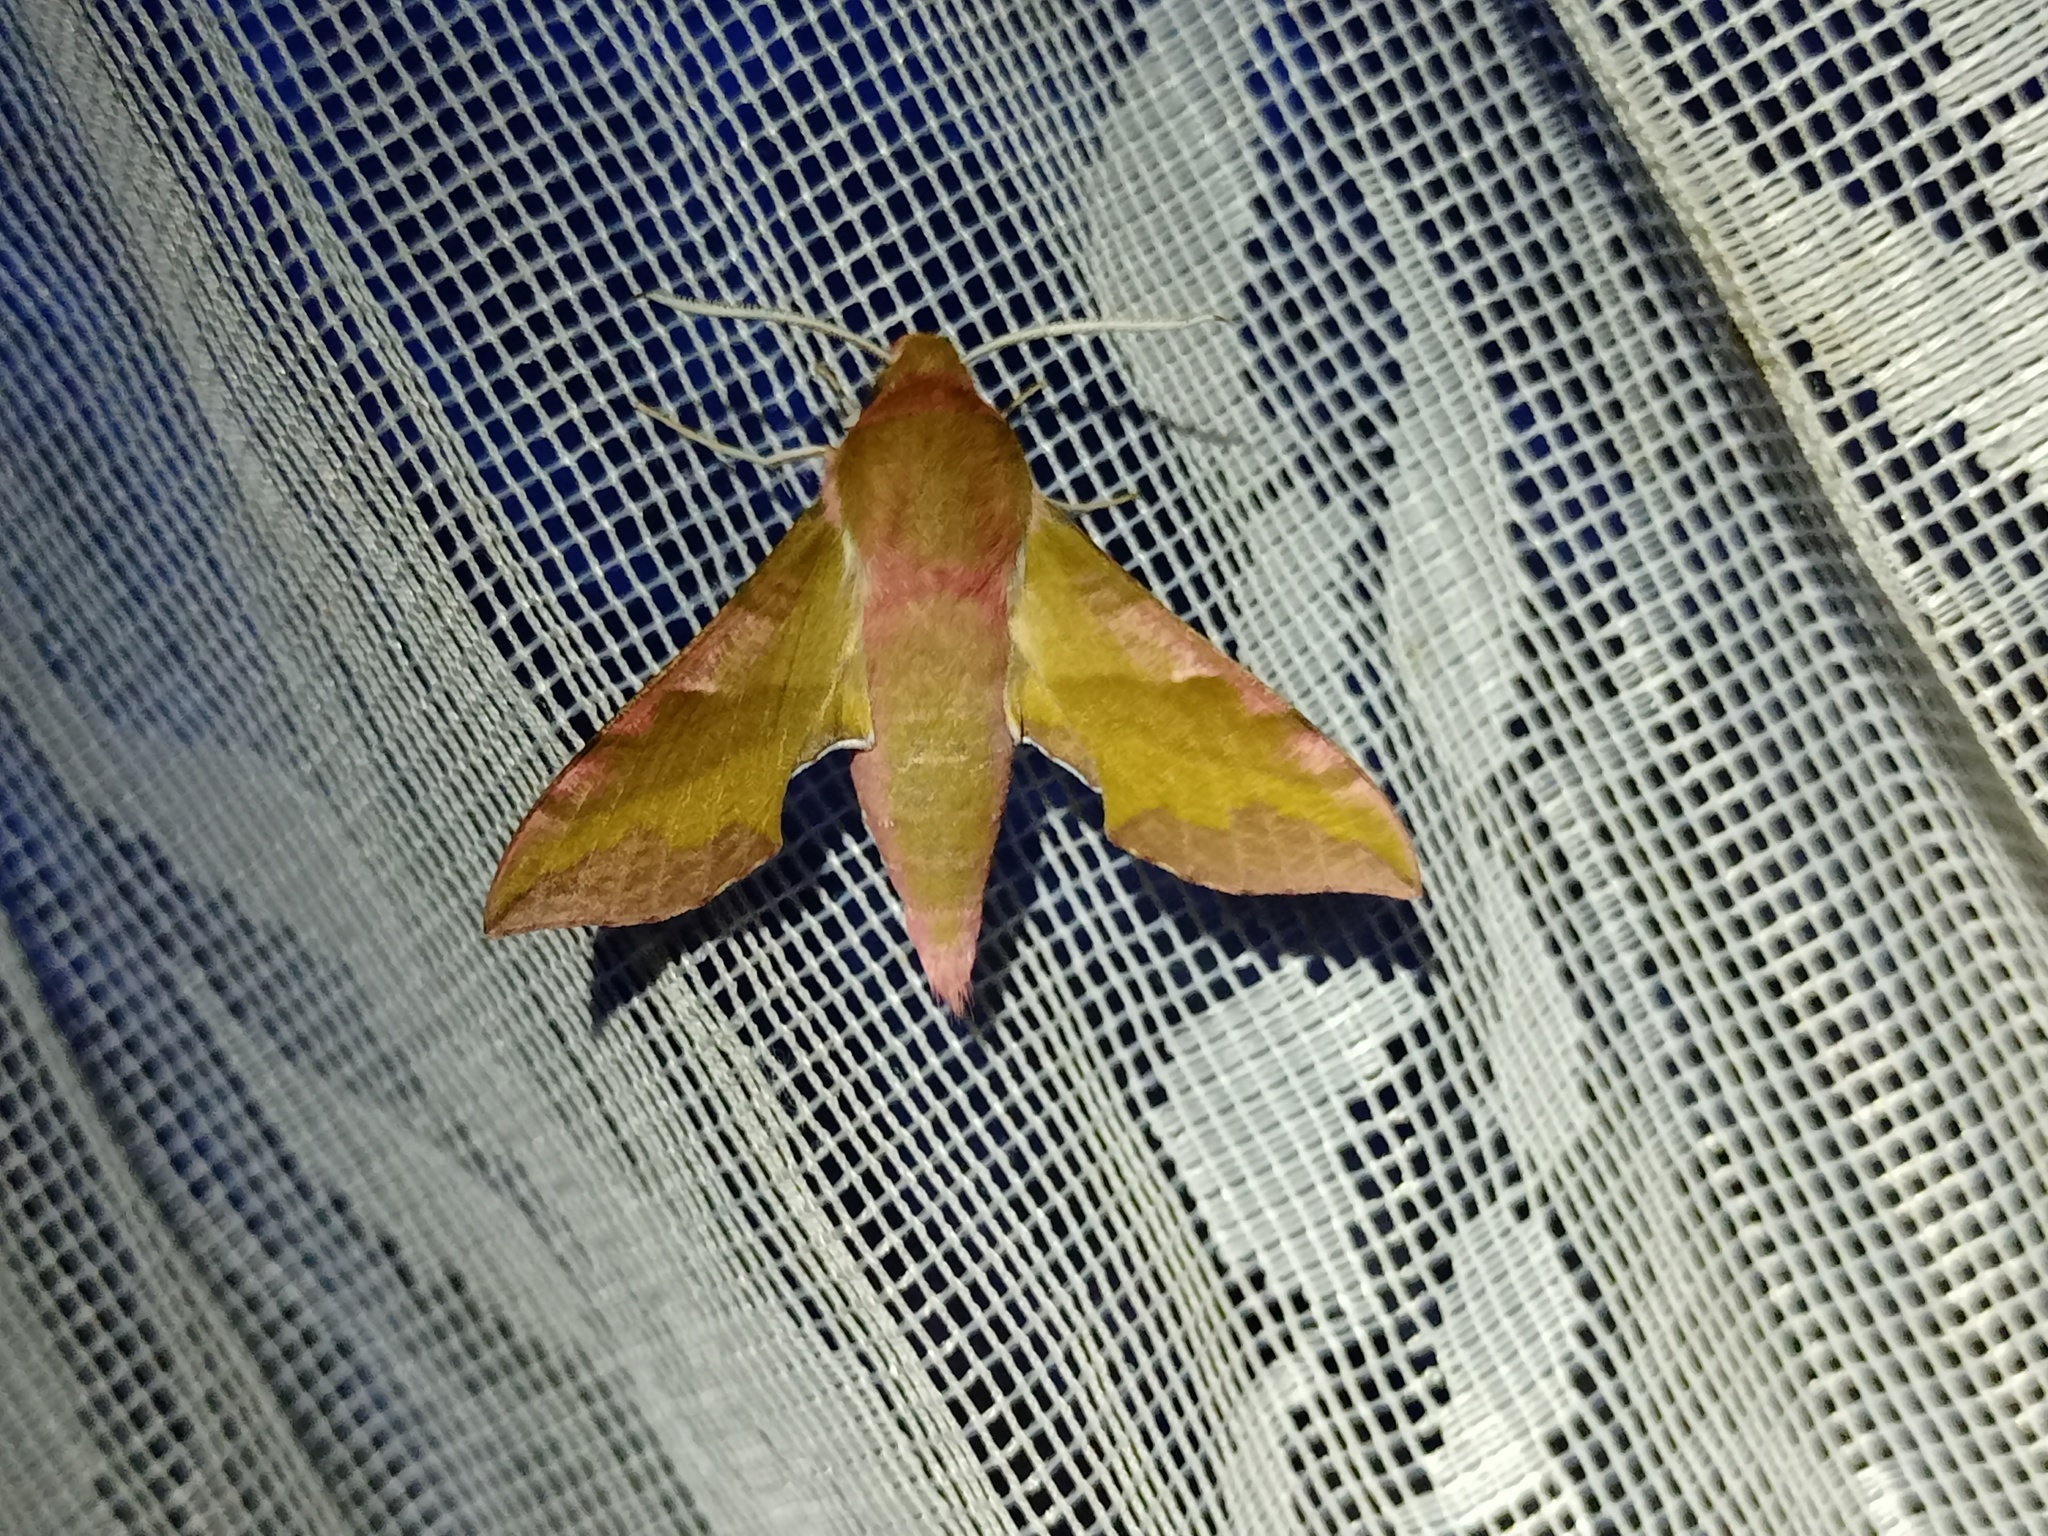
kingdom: Animalia
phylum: Arthropoda
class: Insecta
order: Lepidoptera
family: Sphingidae
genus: Deilephila
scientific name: Deilephila porcellus
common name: Small elephant hawk-moth
